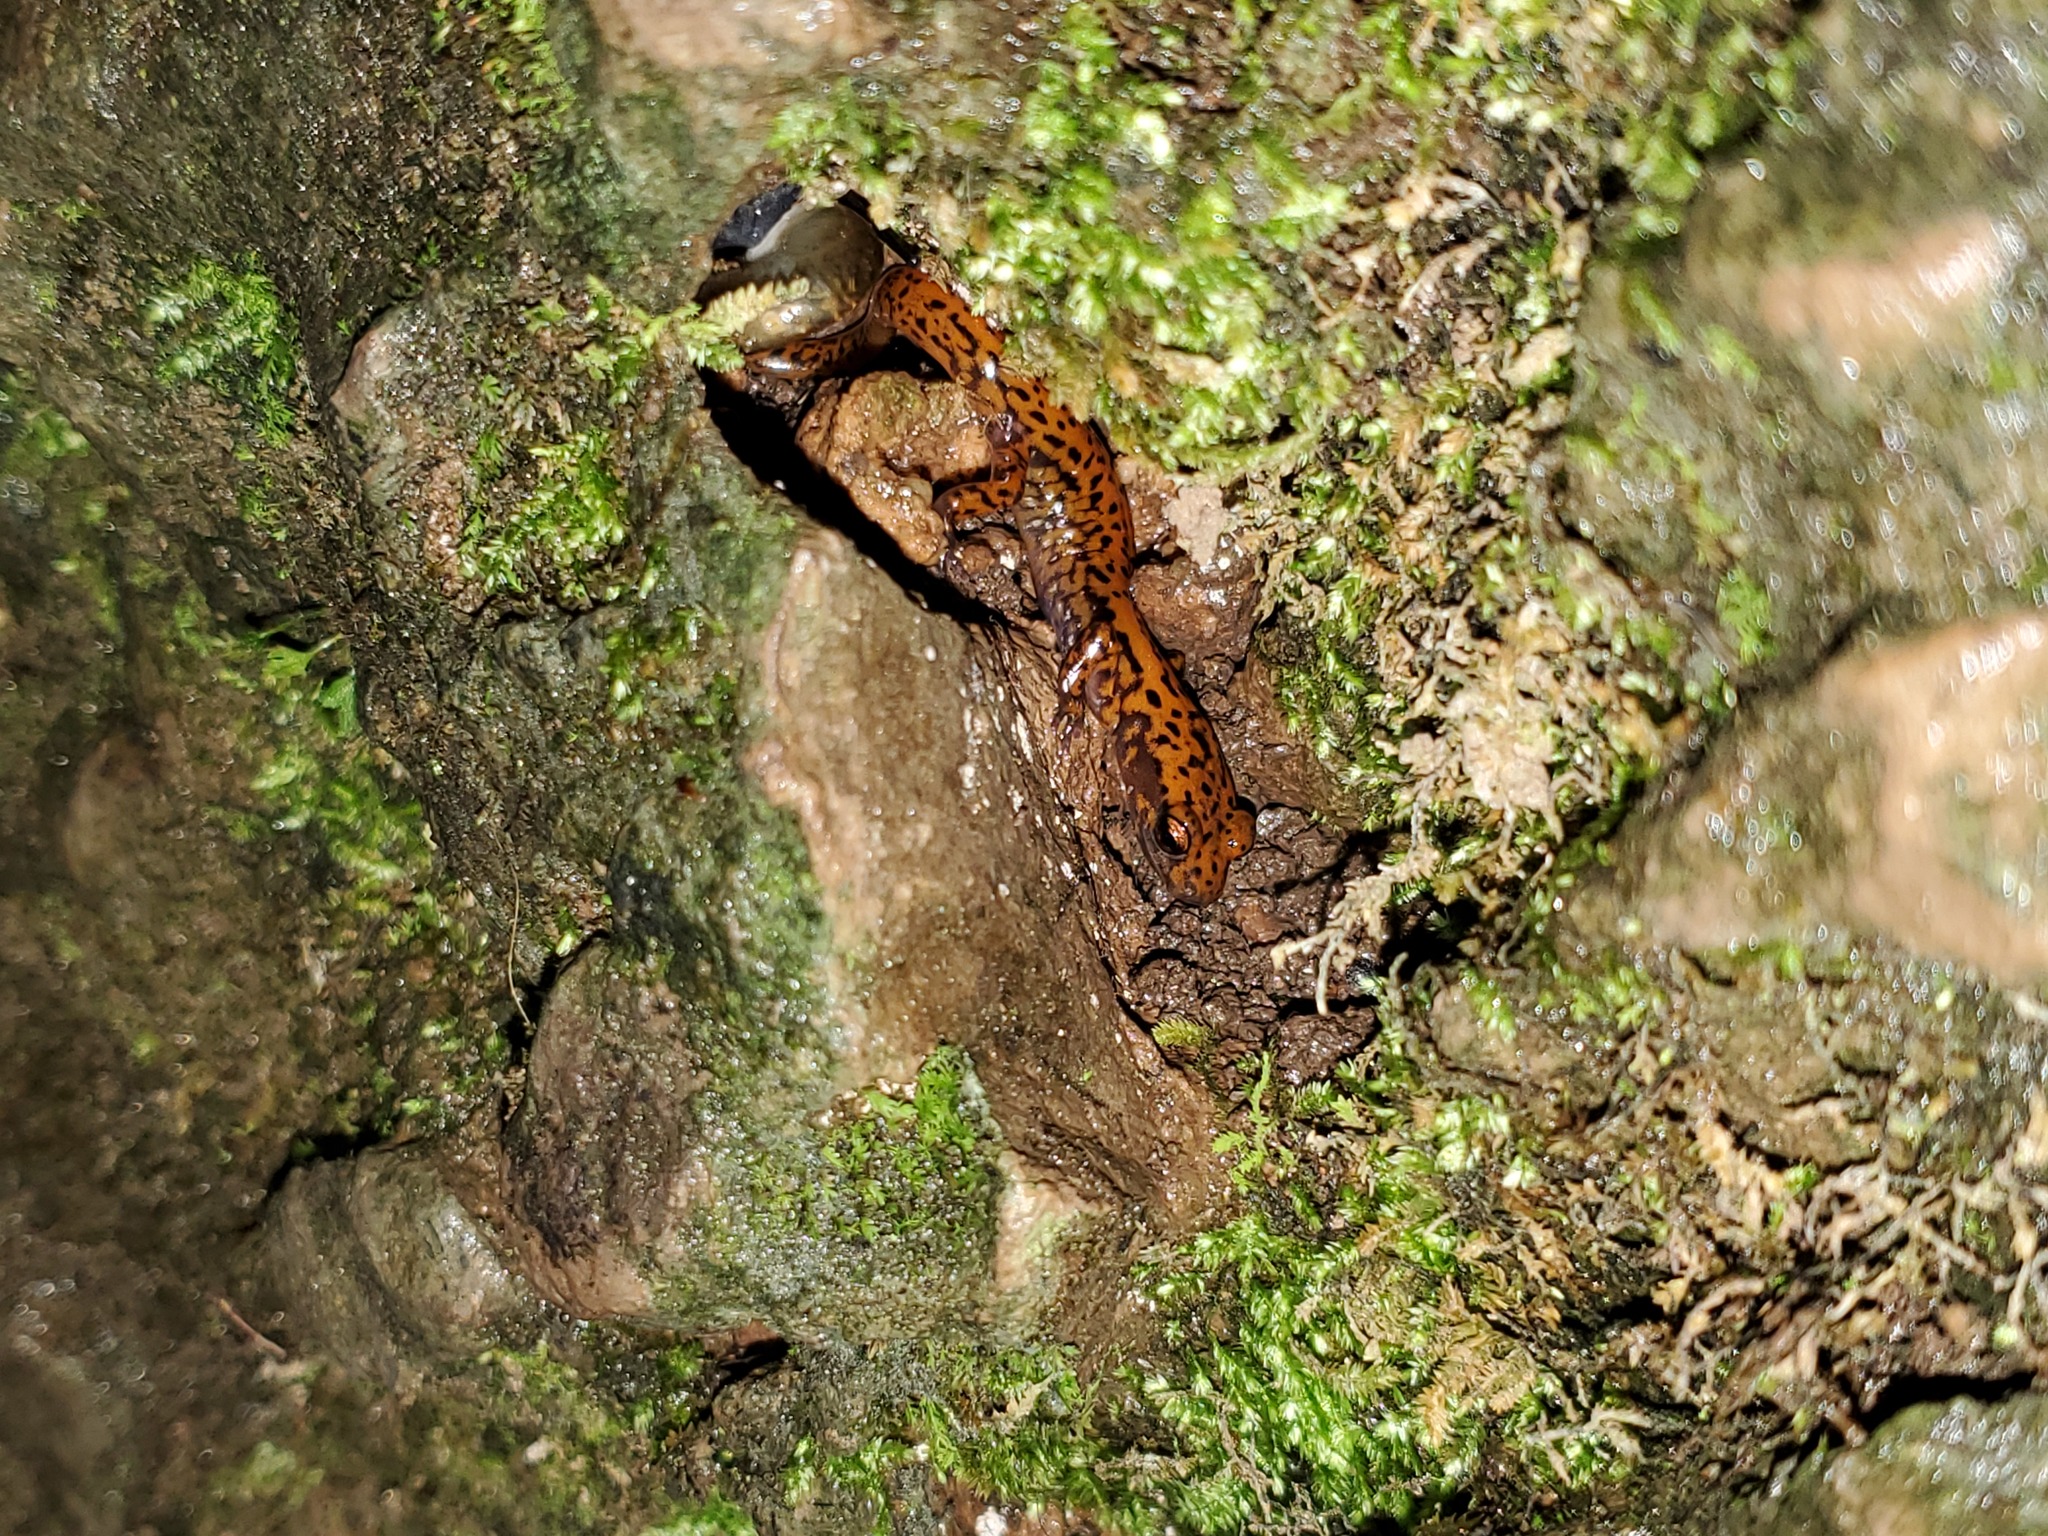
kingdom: Animalia
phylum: Chordata
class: Amphibia
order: Caudata
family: Plethodontidae
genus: Eurycea
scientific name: Eurycea lucifuga
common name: Cave salamander
